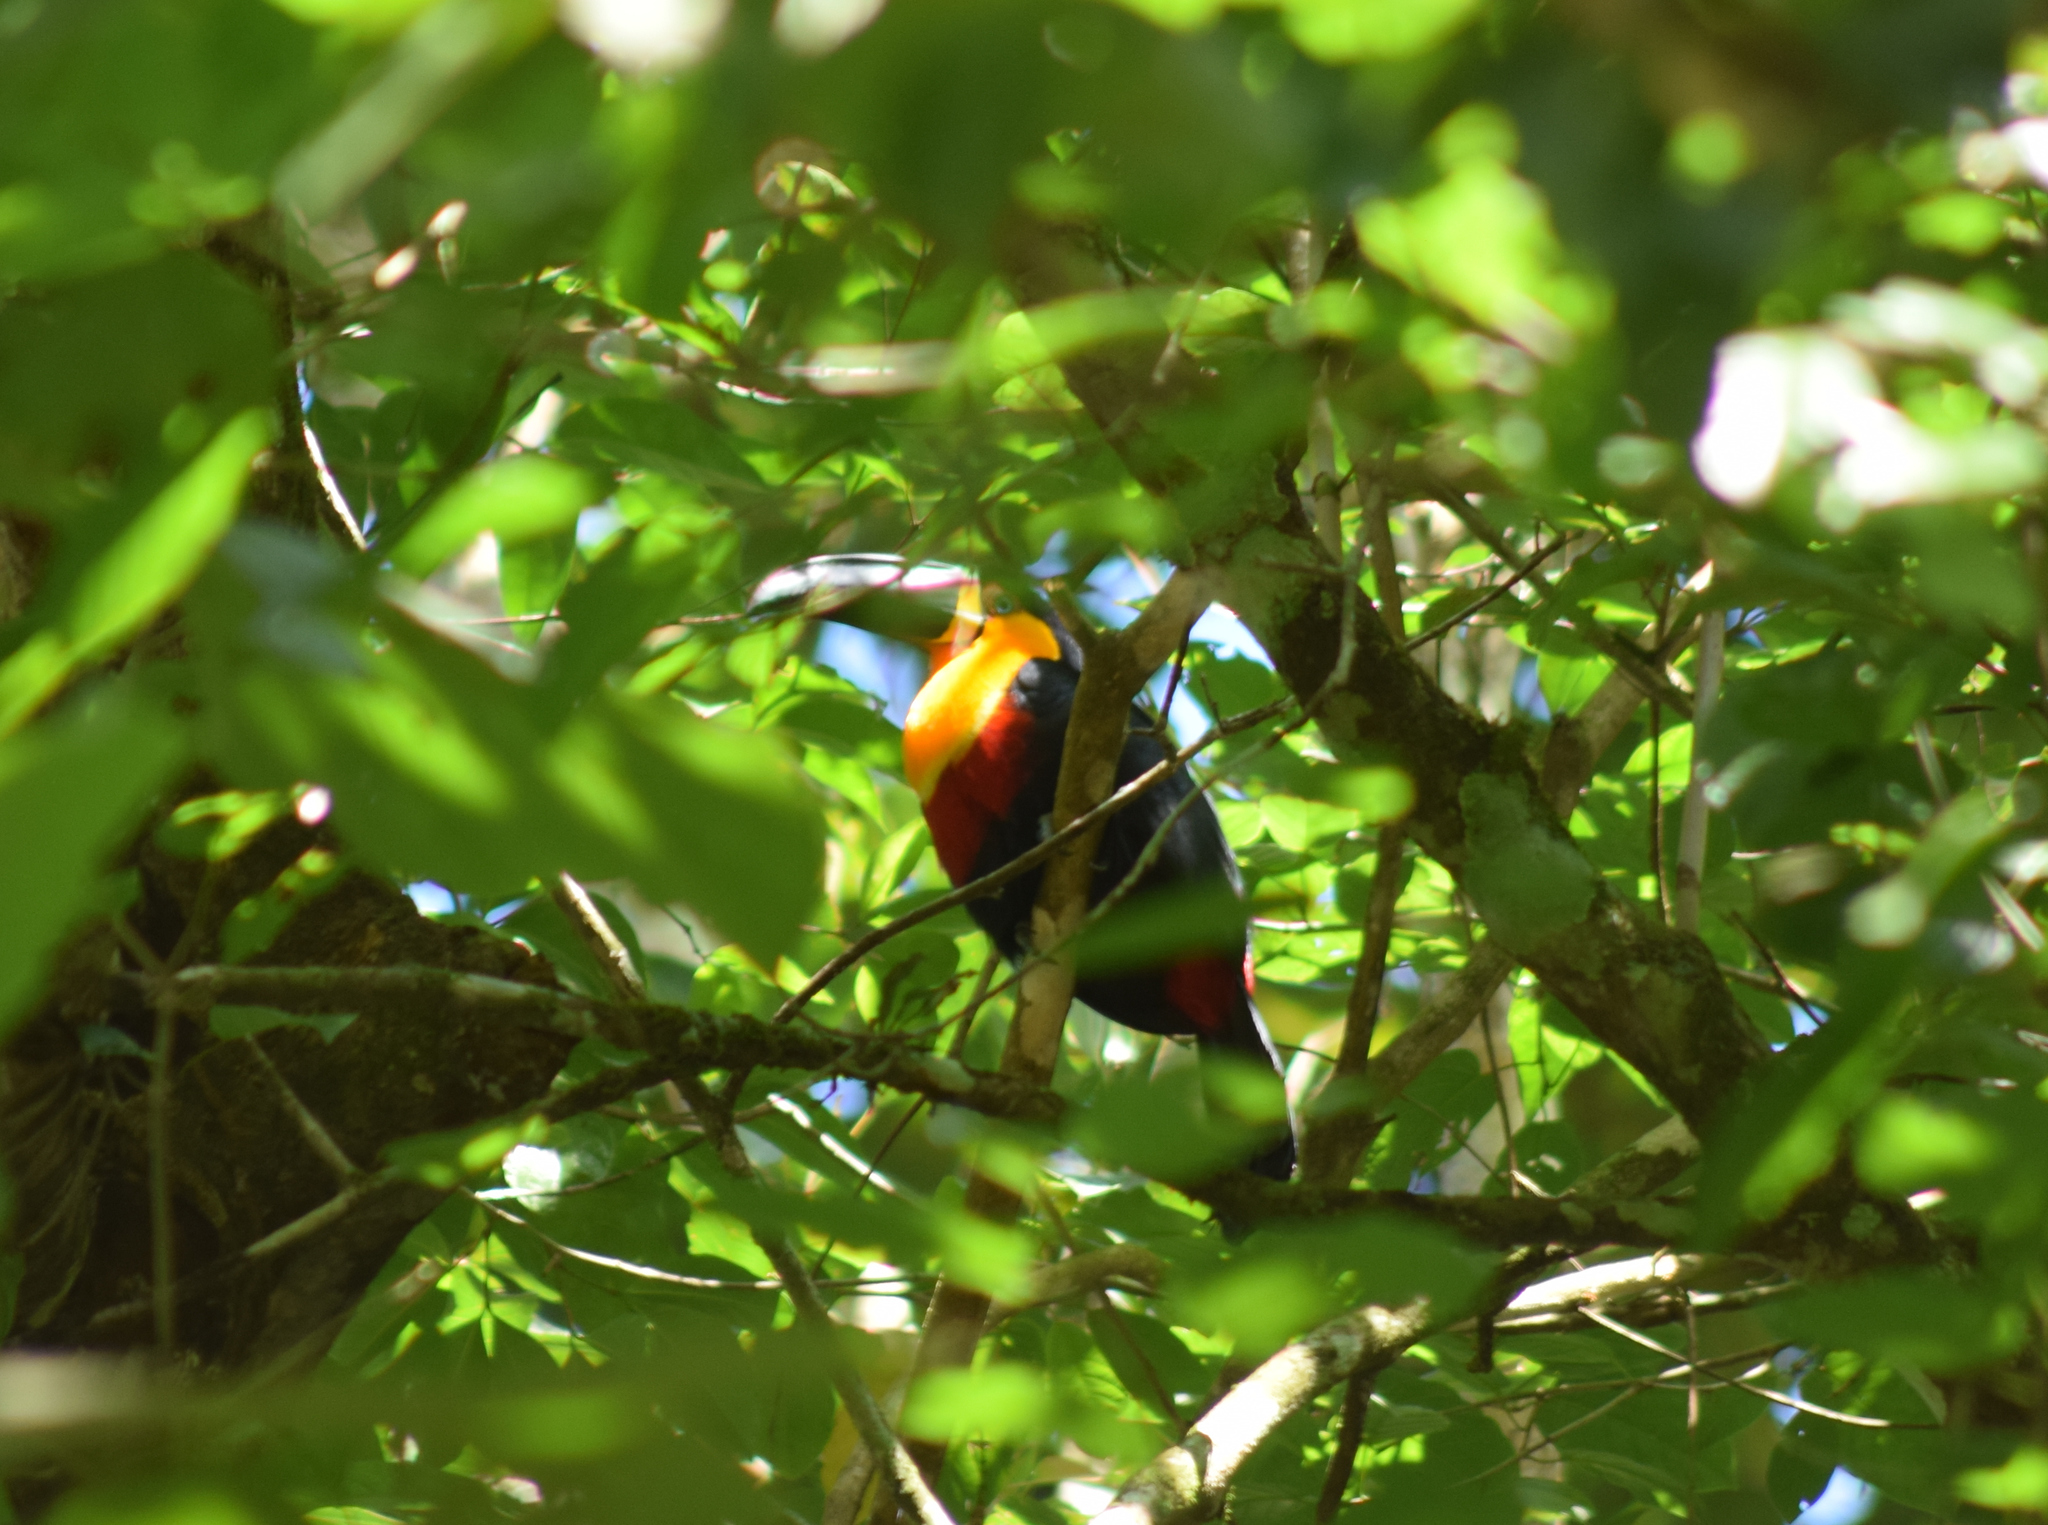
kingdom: Animalia
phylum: Chordata
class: Aves
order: Piciformes
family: Ramphastidae
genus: Ramphastos
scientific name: Ramphastos vitellinus
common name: Channel-billed toucan
